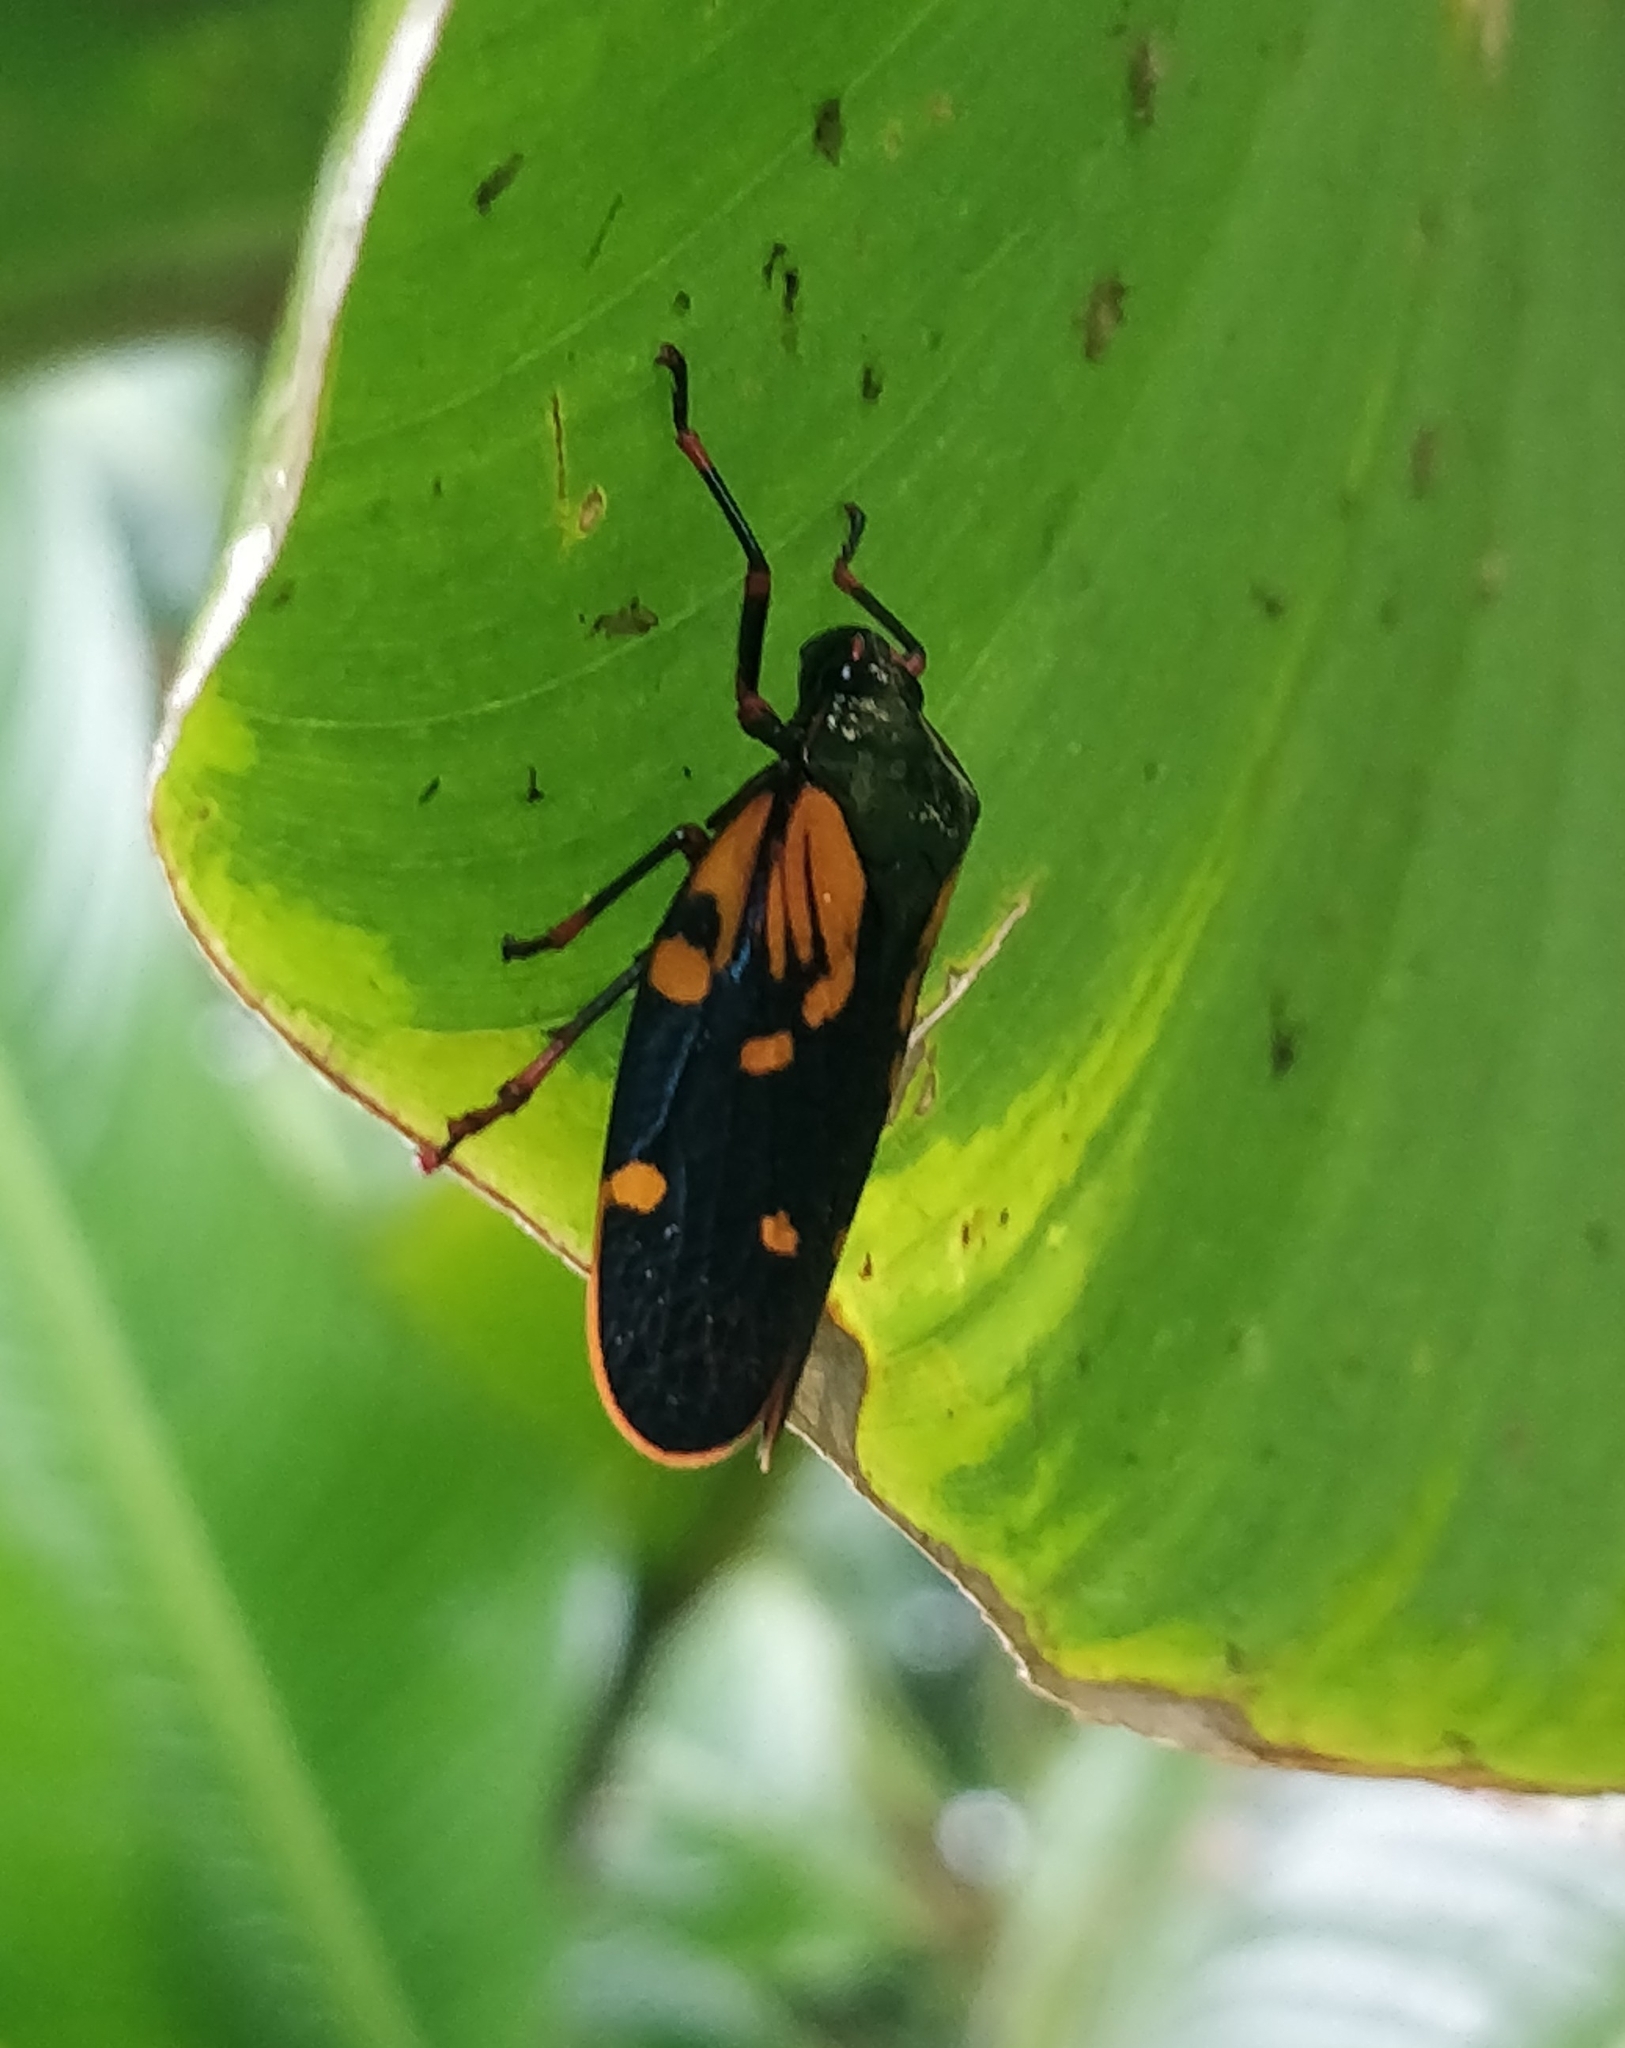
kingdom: Animalia
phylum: Arthropoda
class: Insecta
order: Hemiptera
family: Cercopidae
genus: Mahanarva
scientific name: Mahanarva costaricensis
